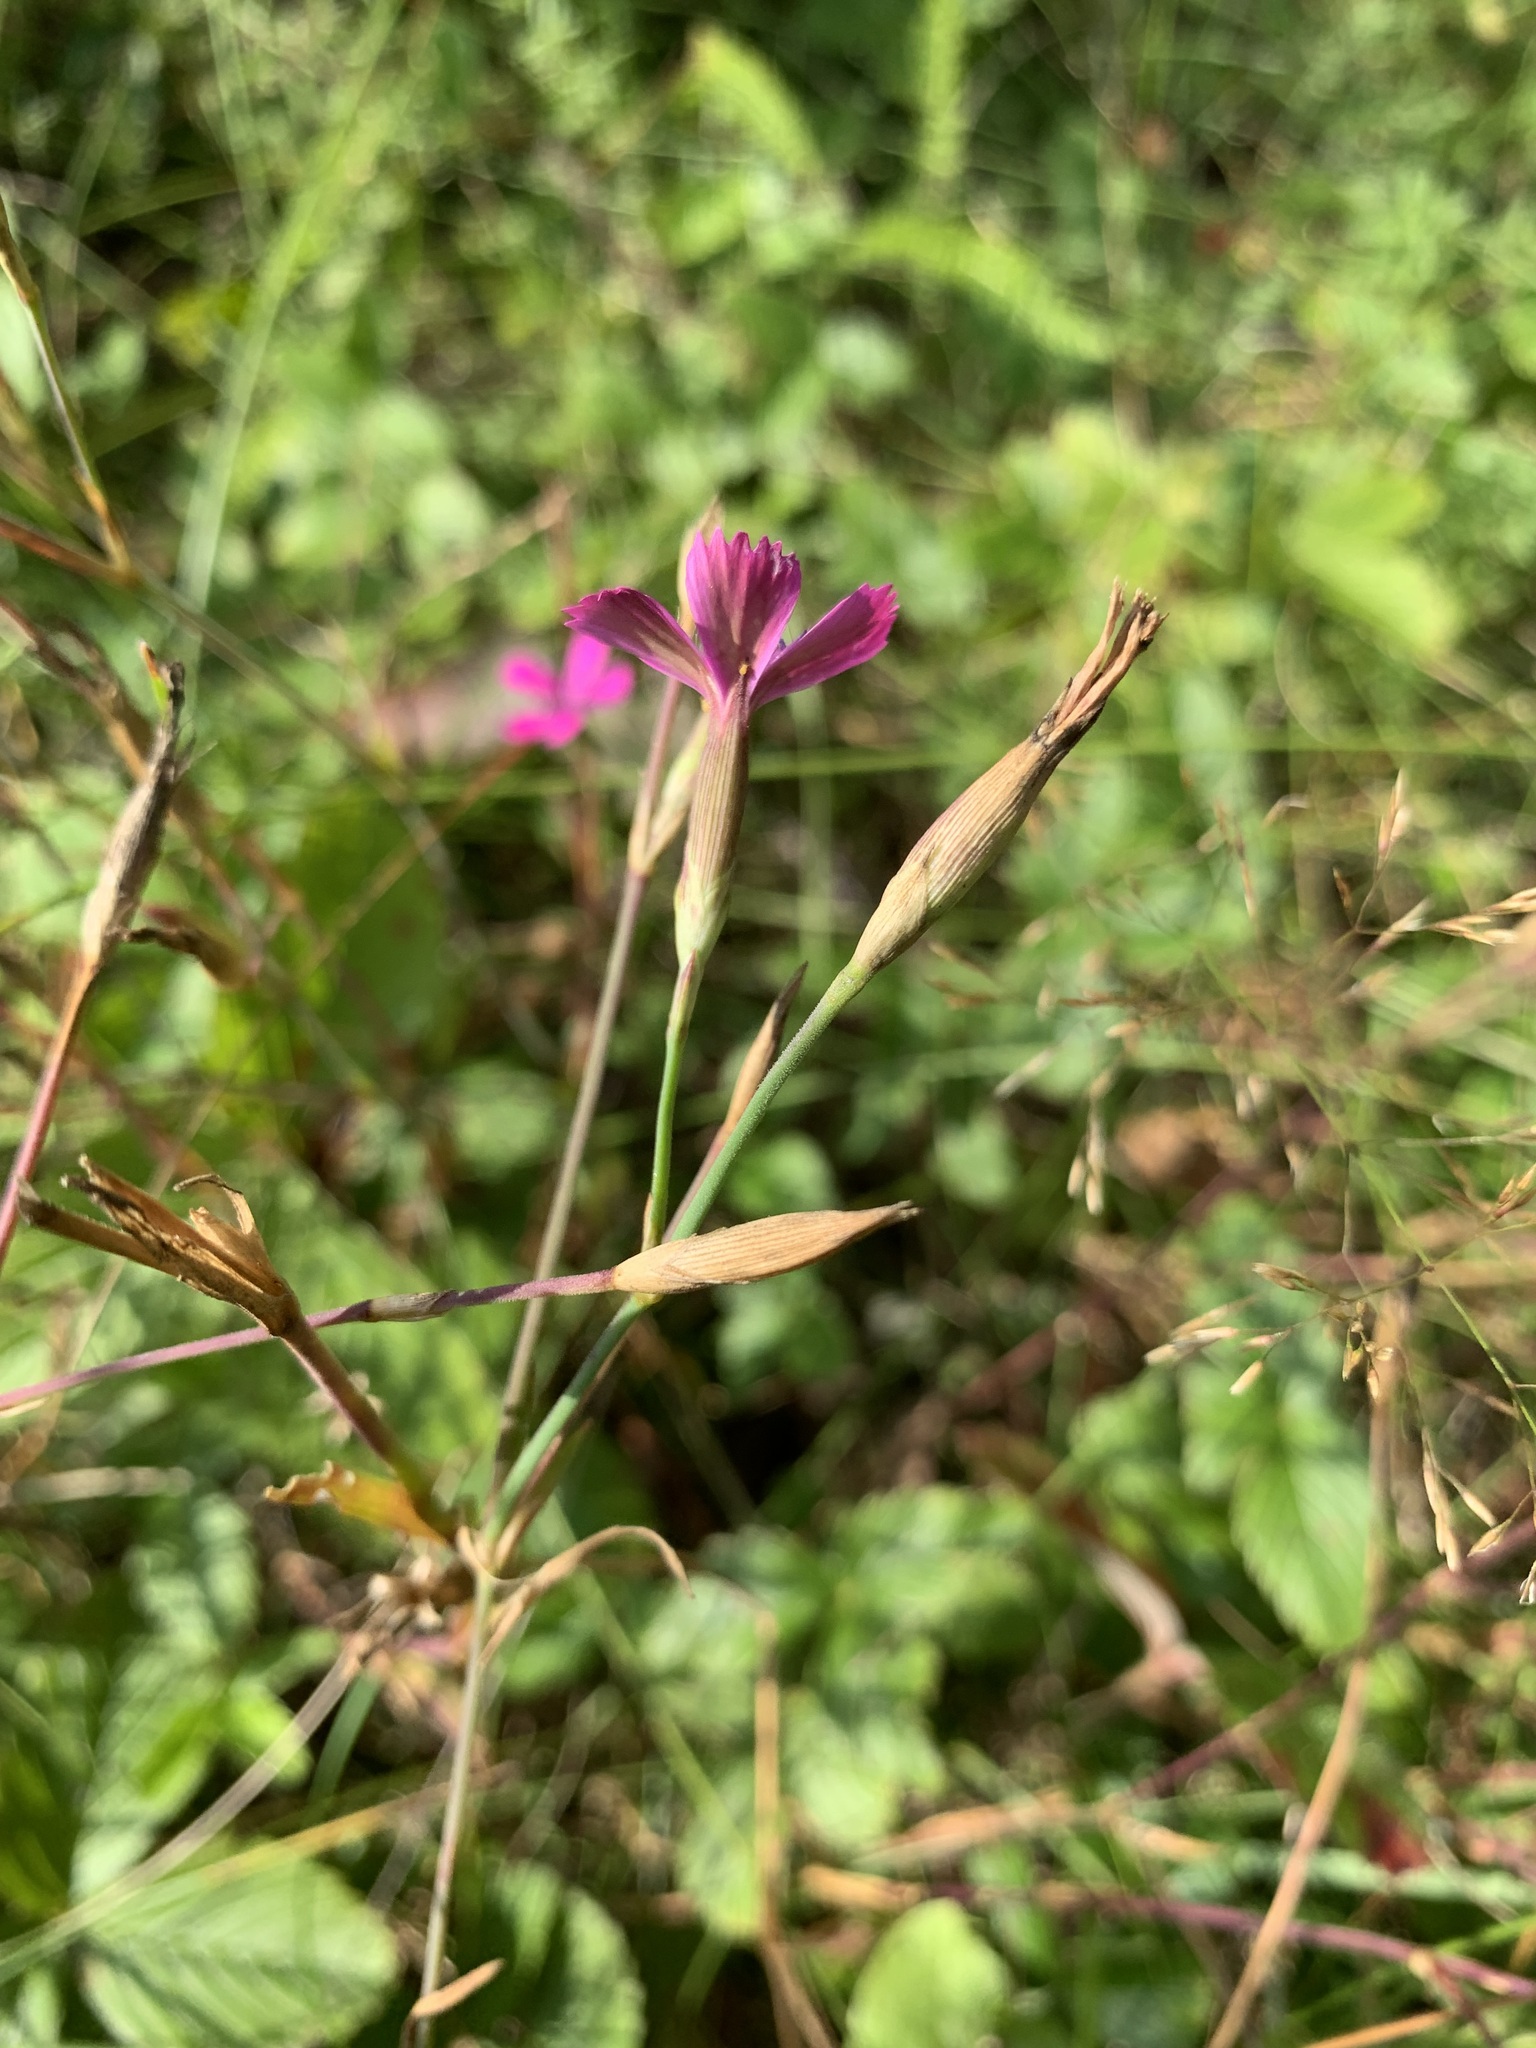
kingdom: Plantae
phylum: Tracheophyta
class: Magnoliopsida
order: Caryophyllales
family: Caryophyllaceae
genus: Dianthus
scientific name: Dianthus deltoides
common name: Maiden pink
